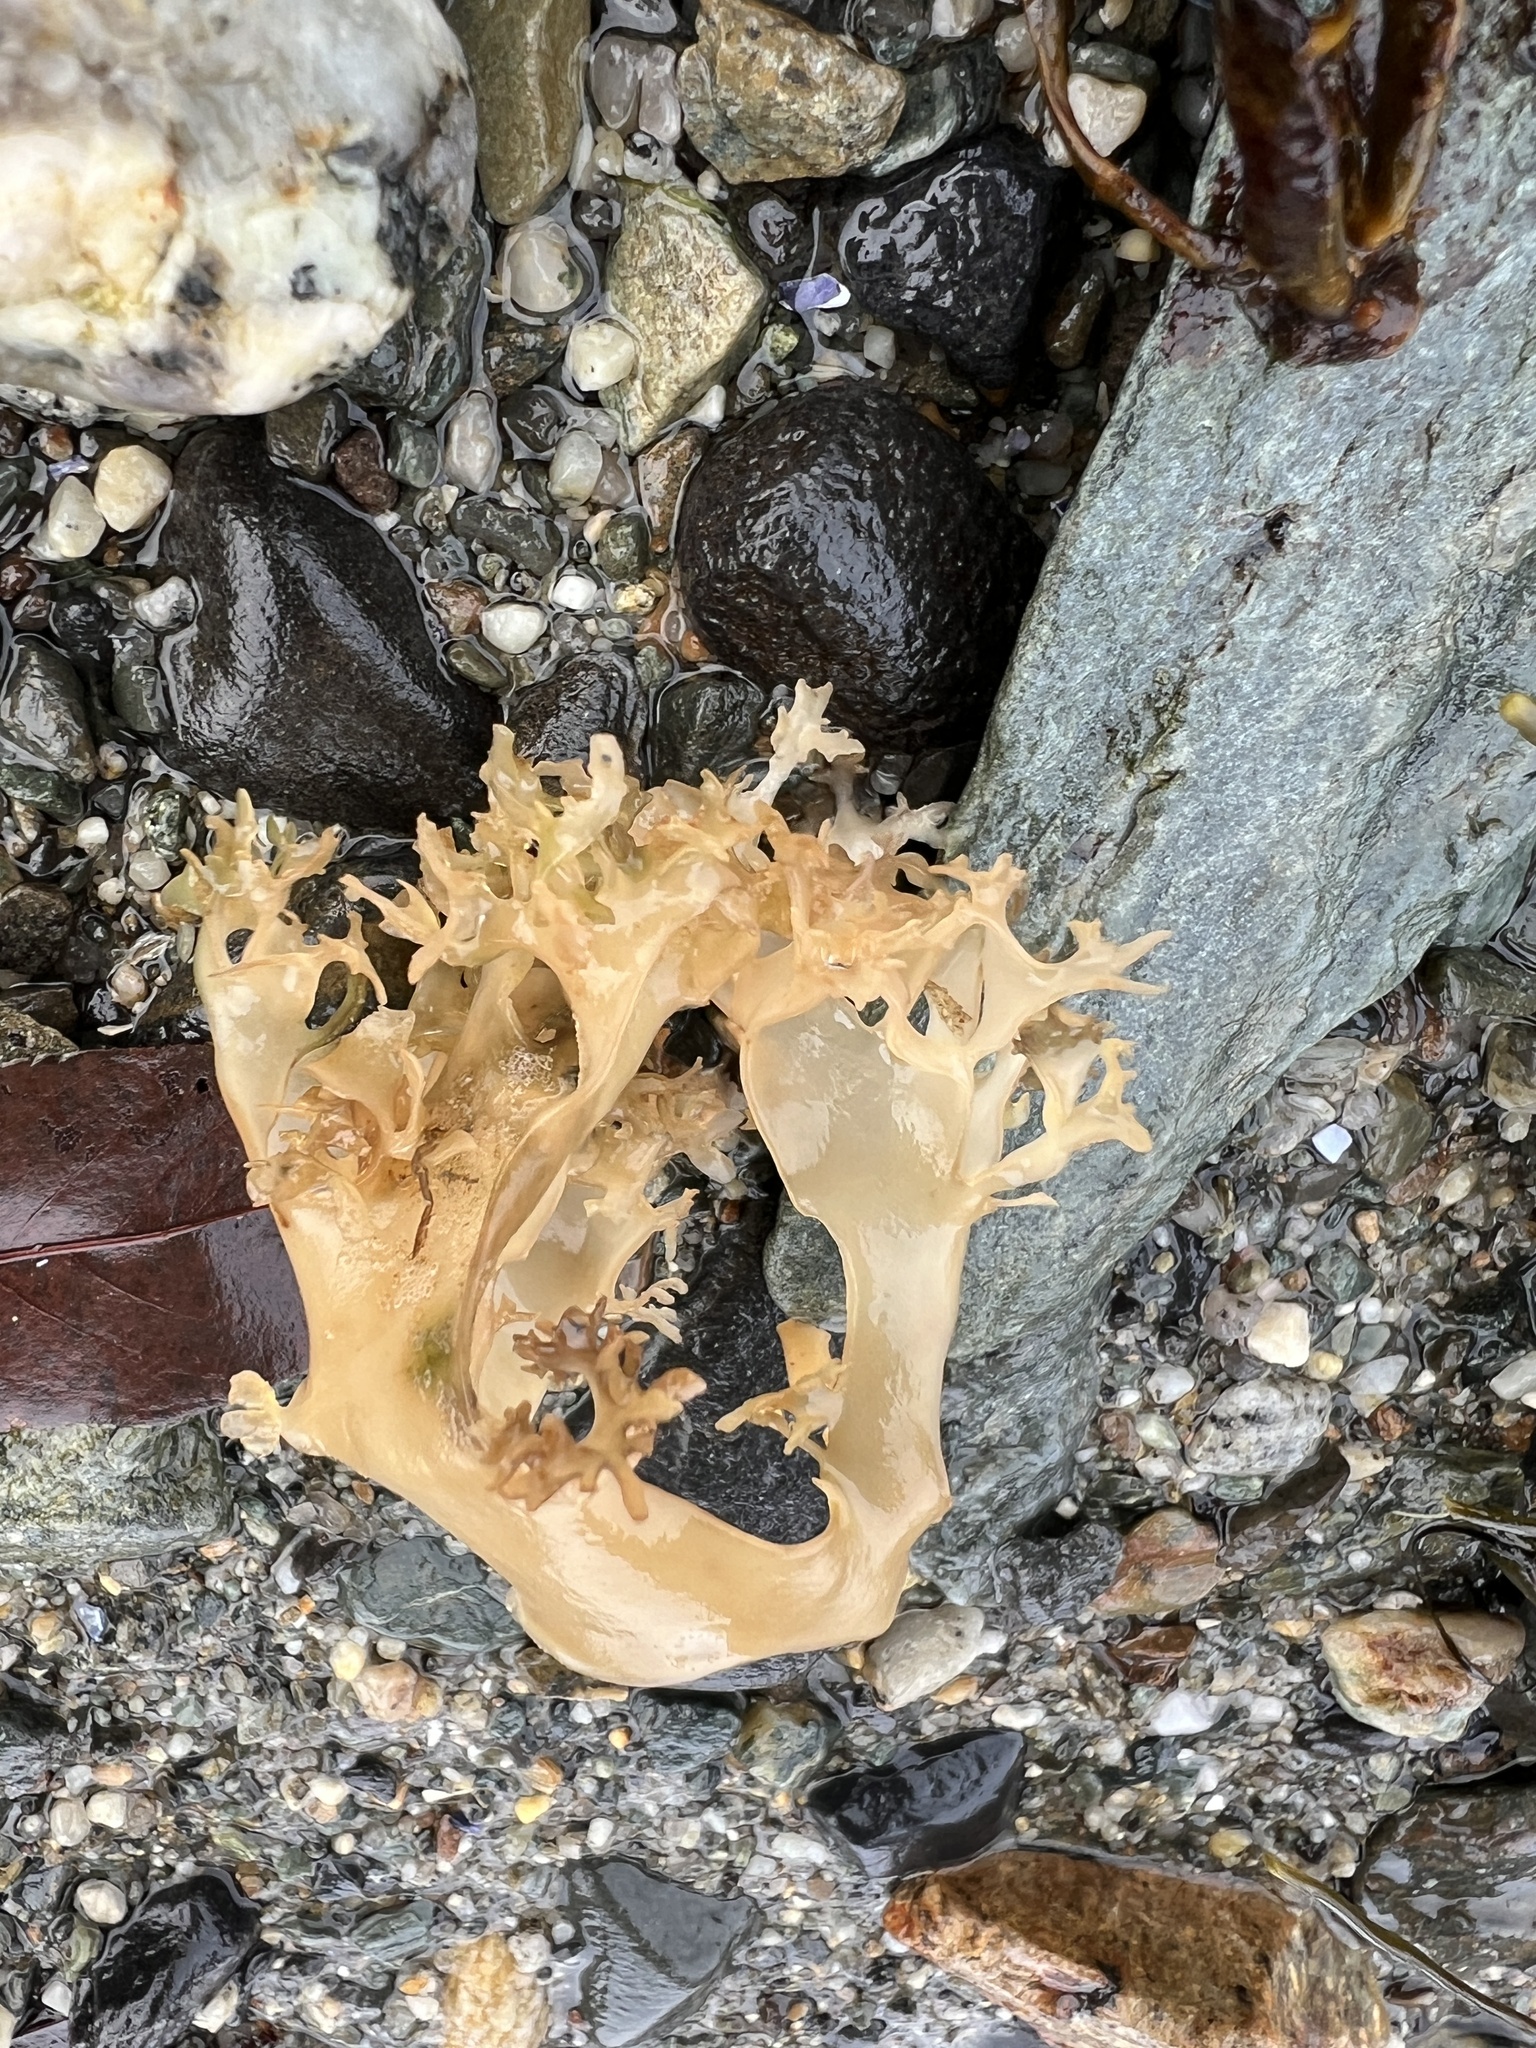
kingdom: Plantae
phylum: Rhodophyta
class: Florideophyceae
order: Gigartinales
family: Gigartinaceae
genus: Chondrus
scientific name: Chondrus crispus
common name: Carrageen
